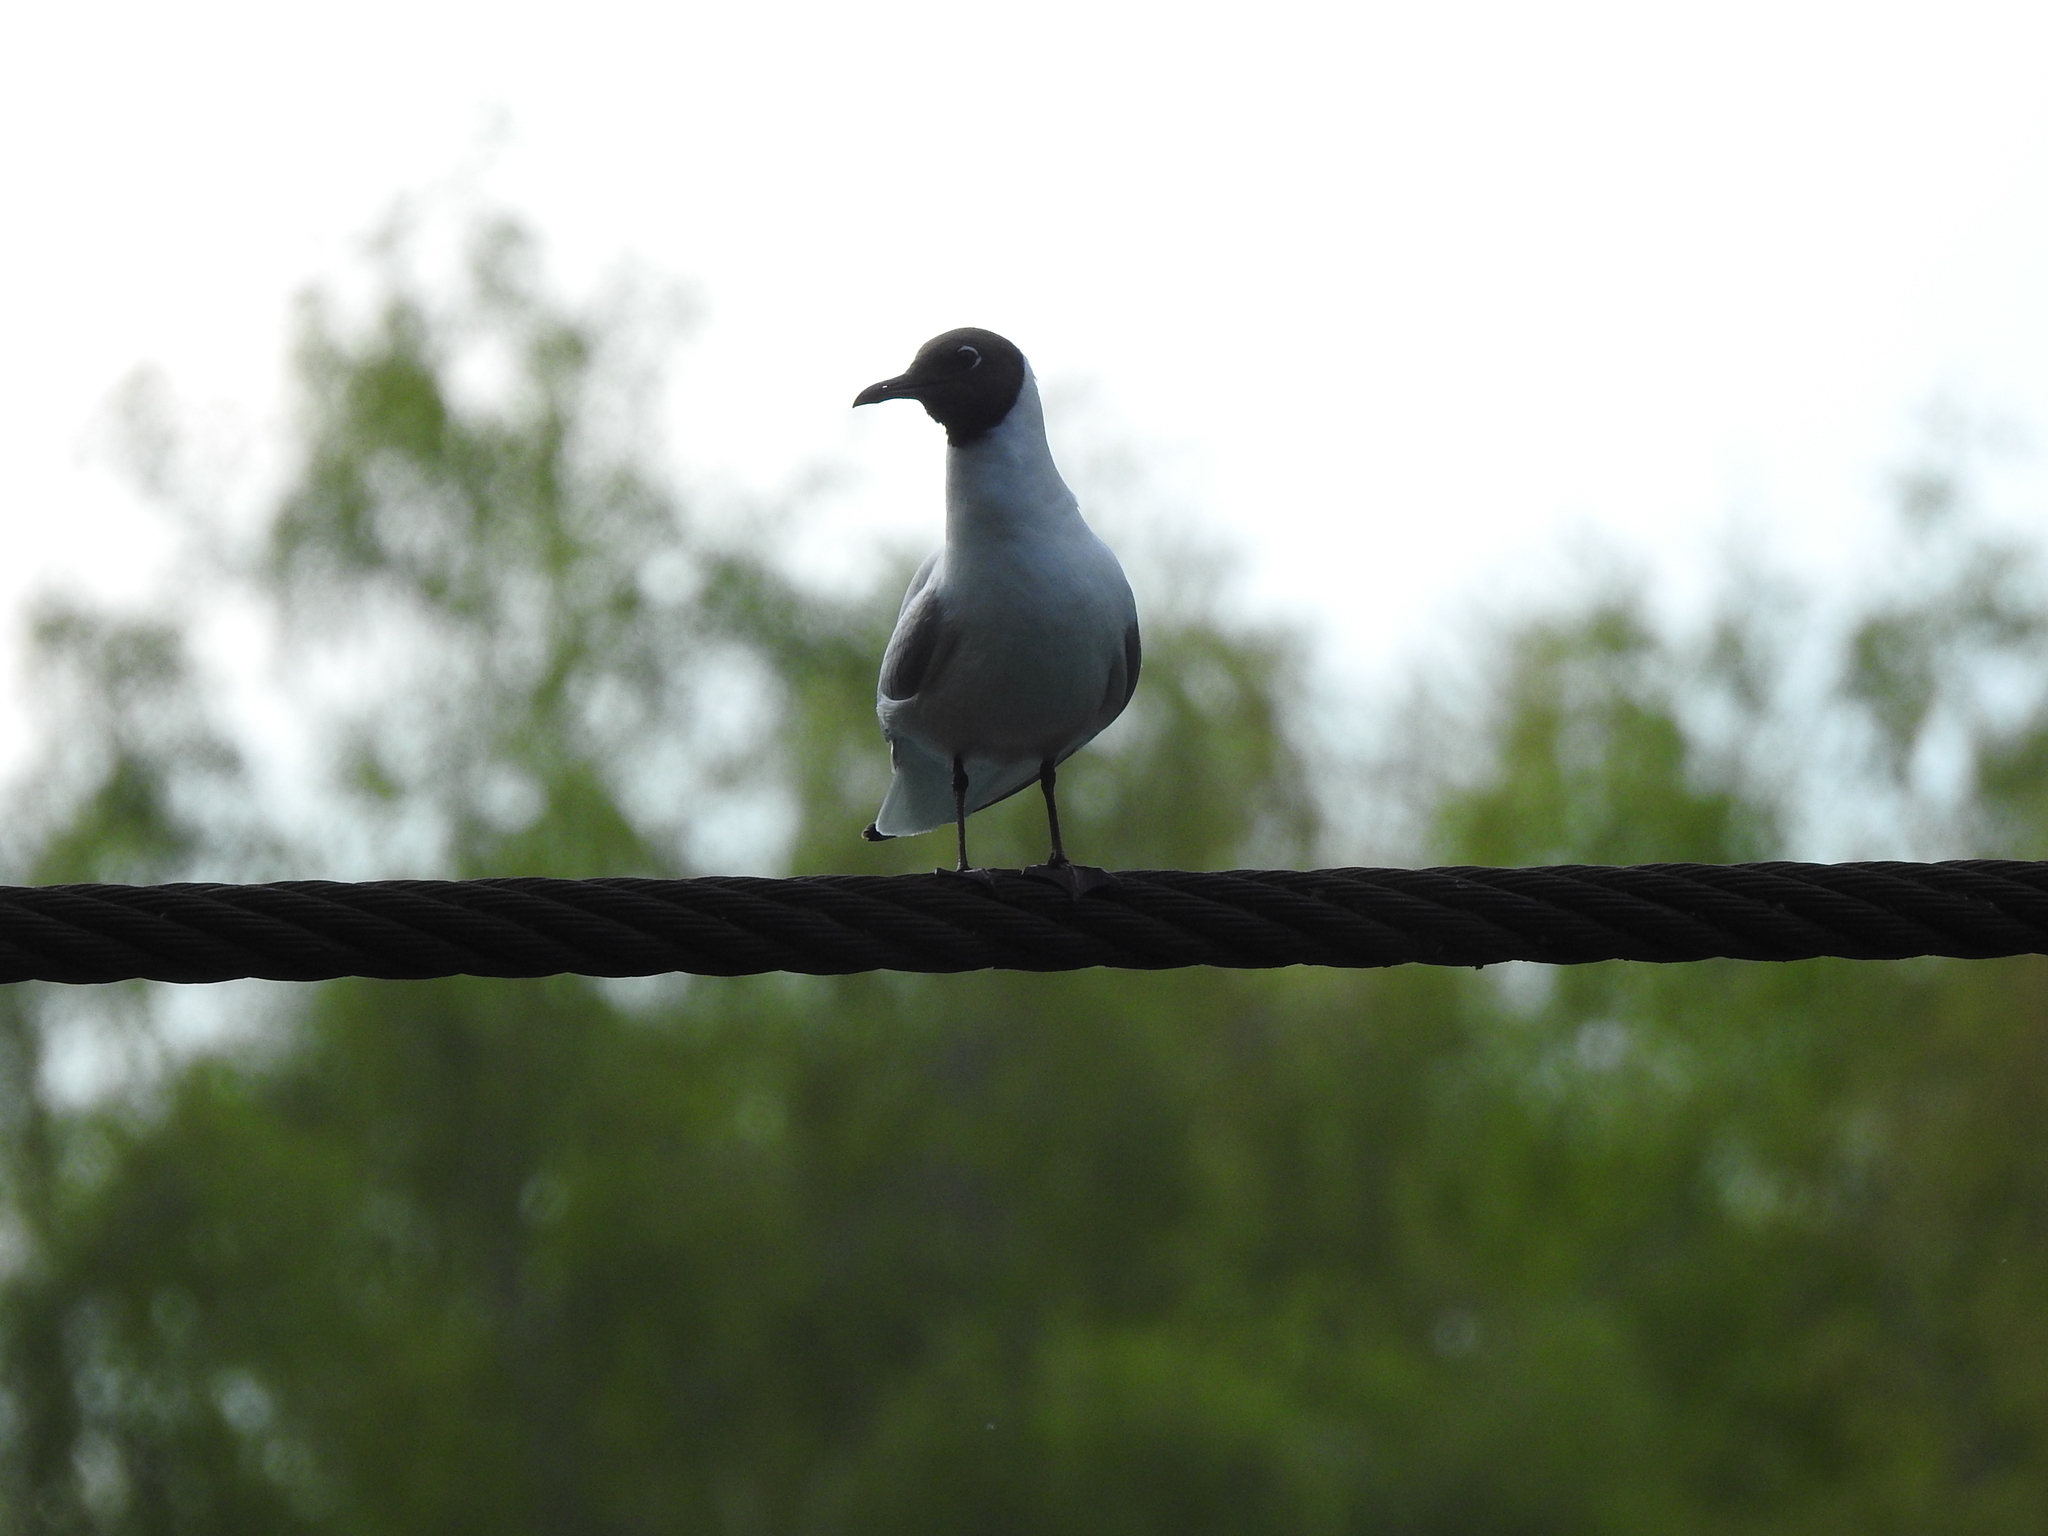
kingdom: Animalia
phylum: Chordata
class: Aves
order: Charadriiformes
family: Laridae
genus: Chroicocephalus
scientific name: Chroicocephalus ridibundus
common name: Black-headed gull
